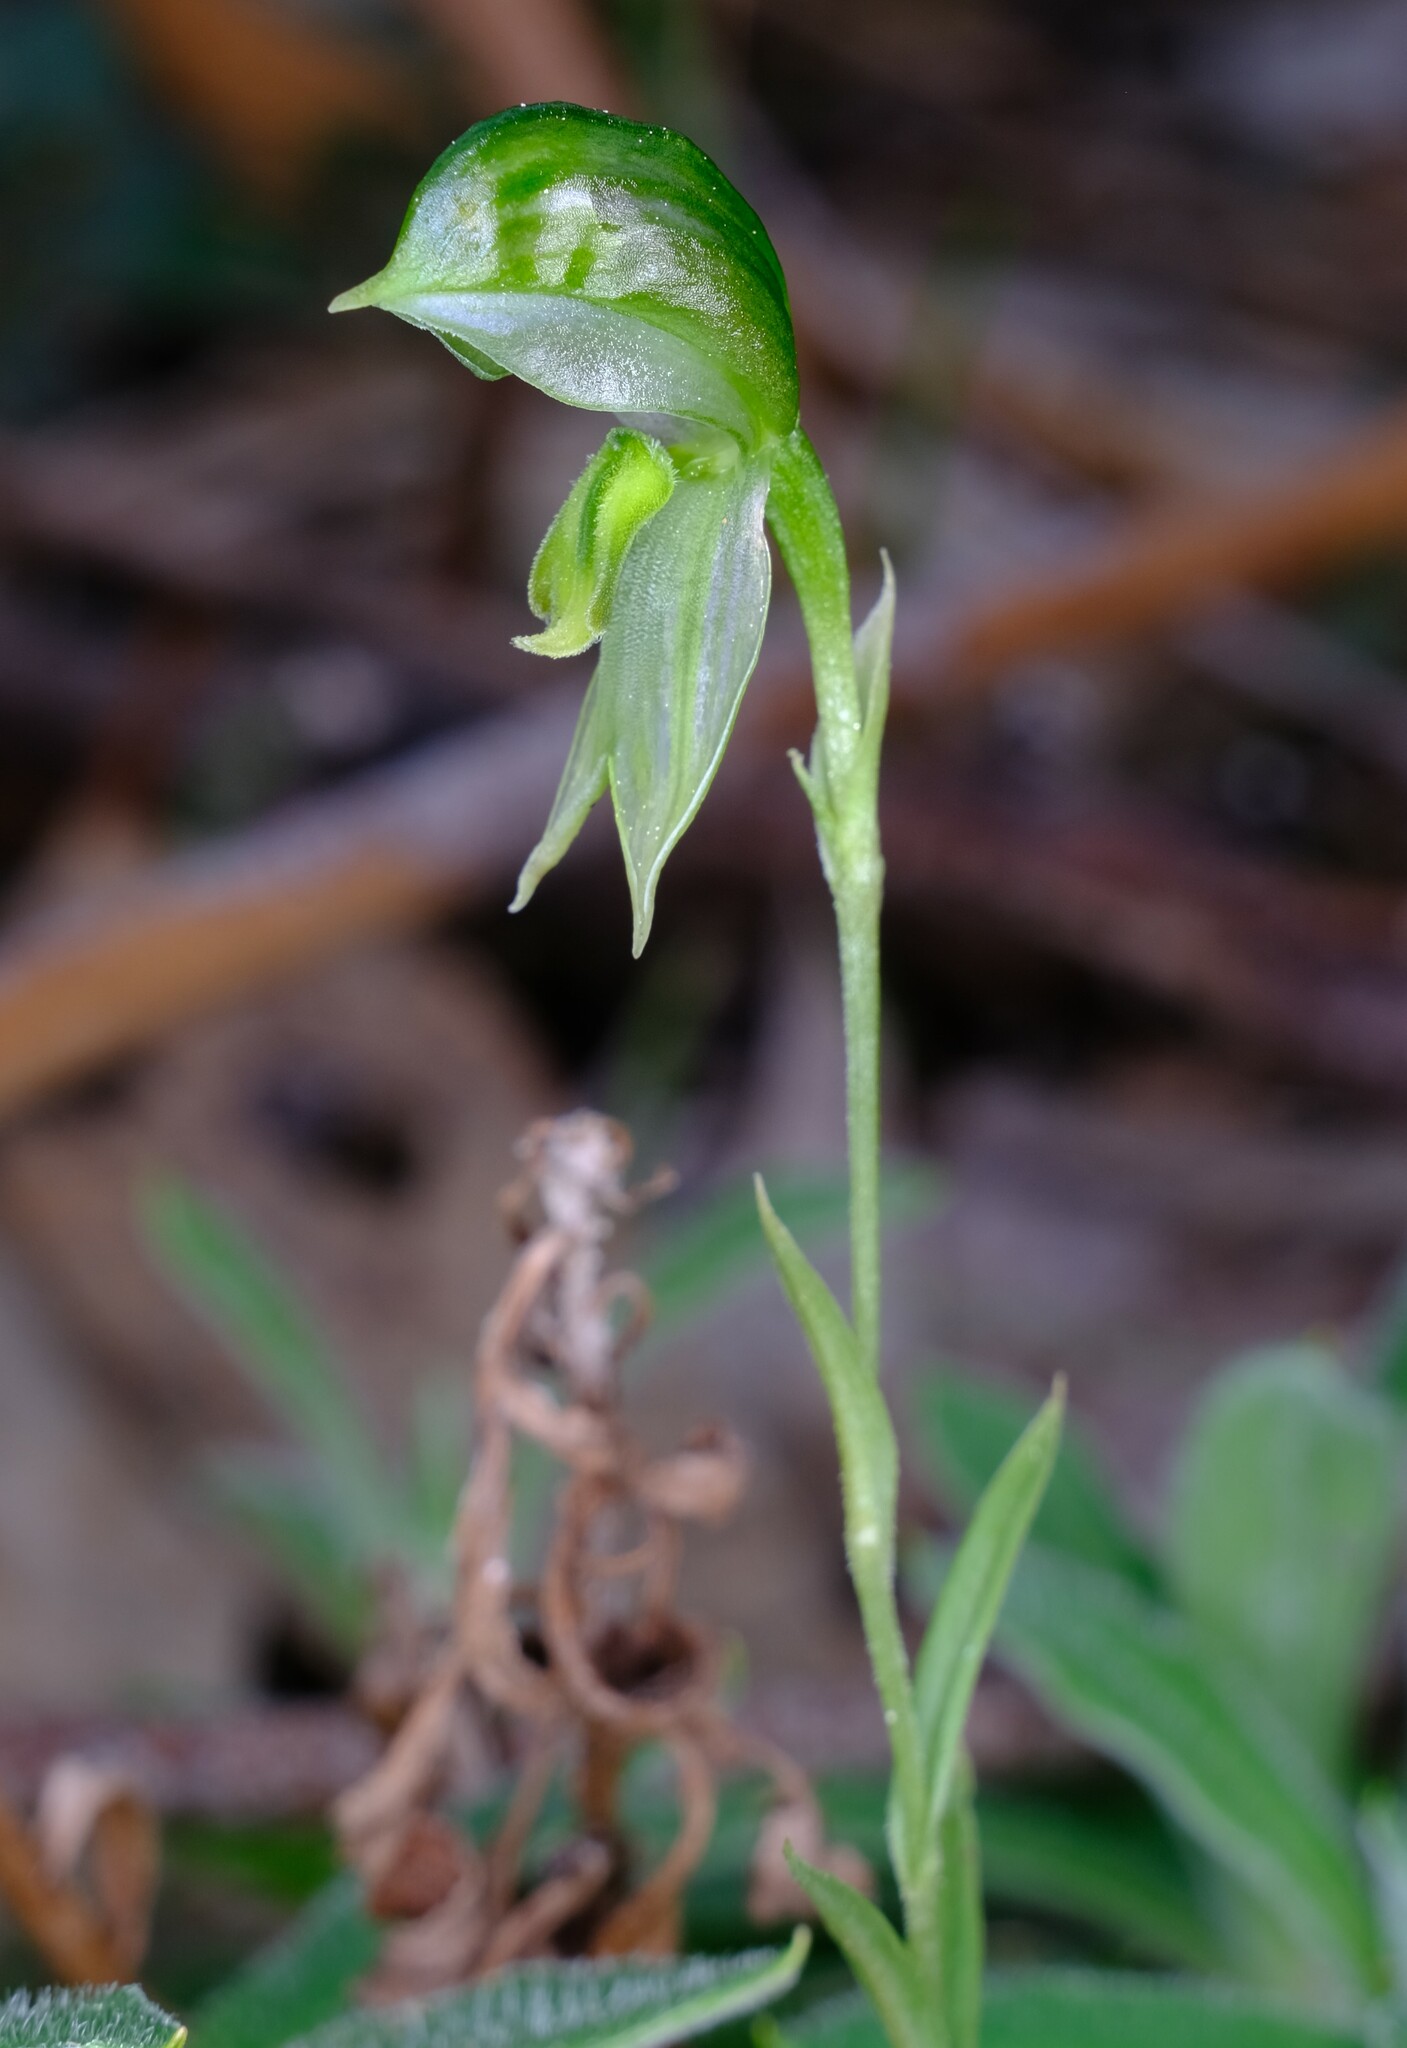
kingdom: Plantae
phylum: Tracheophyta
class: Liliopsida
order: Asparagales
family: Orchidaceae
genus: Pterostylis
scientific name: Pterostylis smaragdyna
